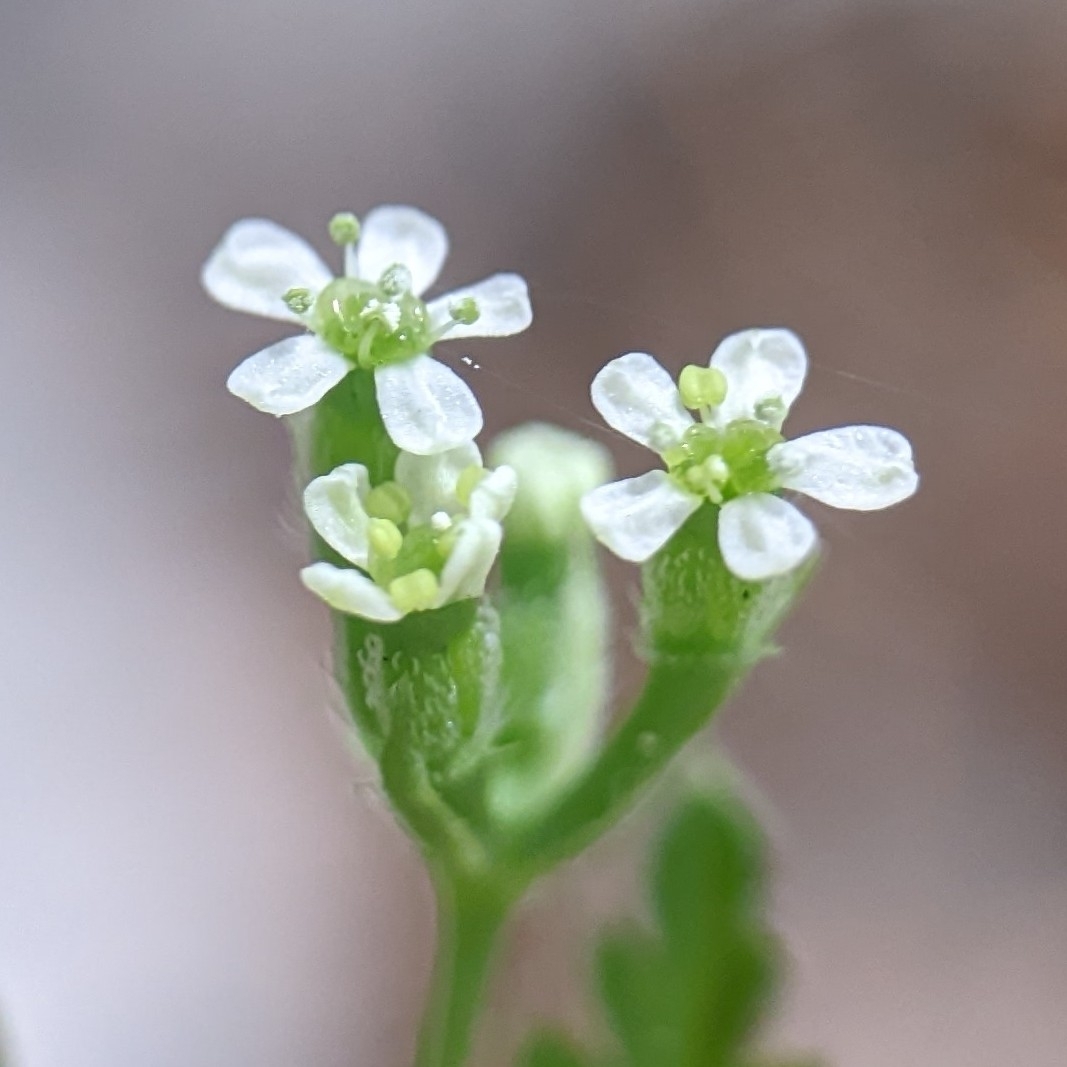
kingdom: Plantae
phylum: Tracheophyta
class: Magnoliopsida
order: Apiales
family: Apiaceae
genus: Anthriscus
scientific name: Anthriscus caucalis
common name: Bur chervil
